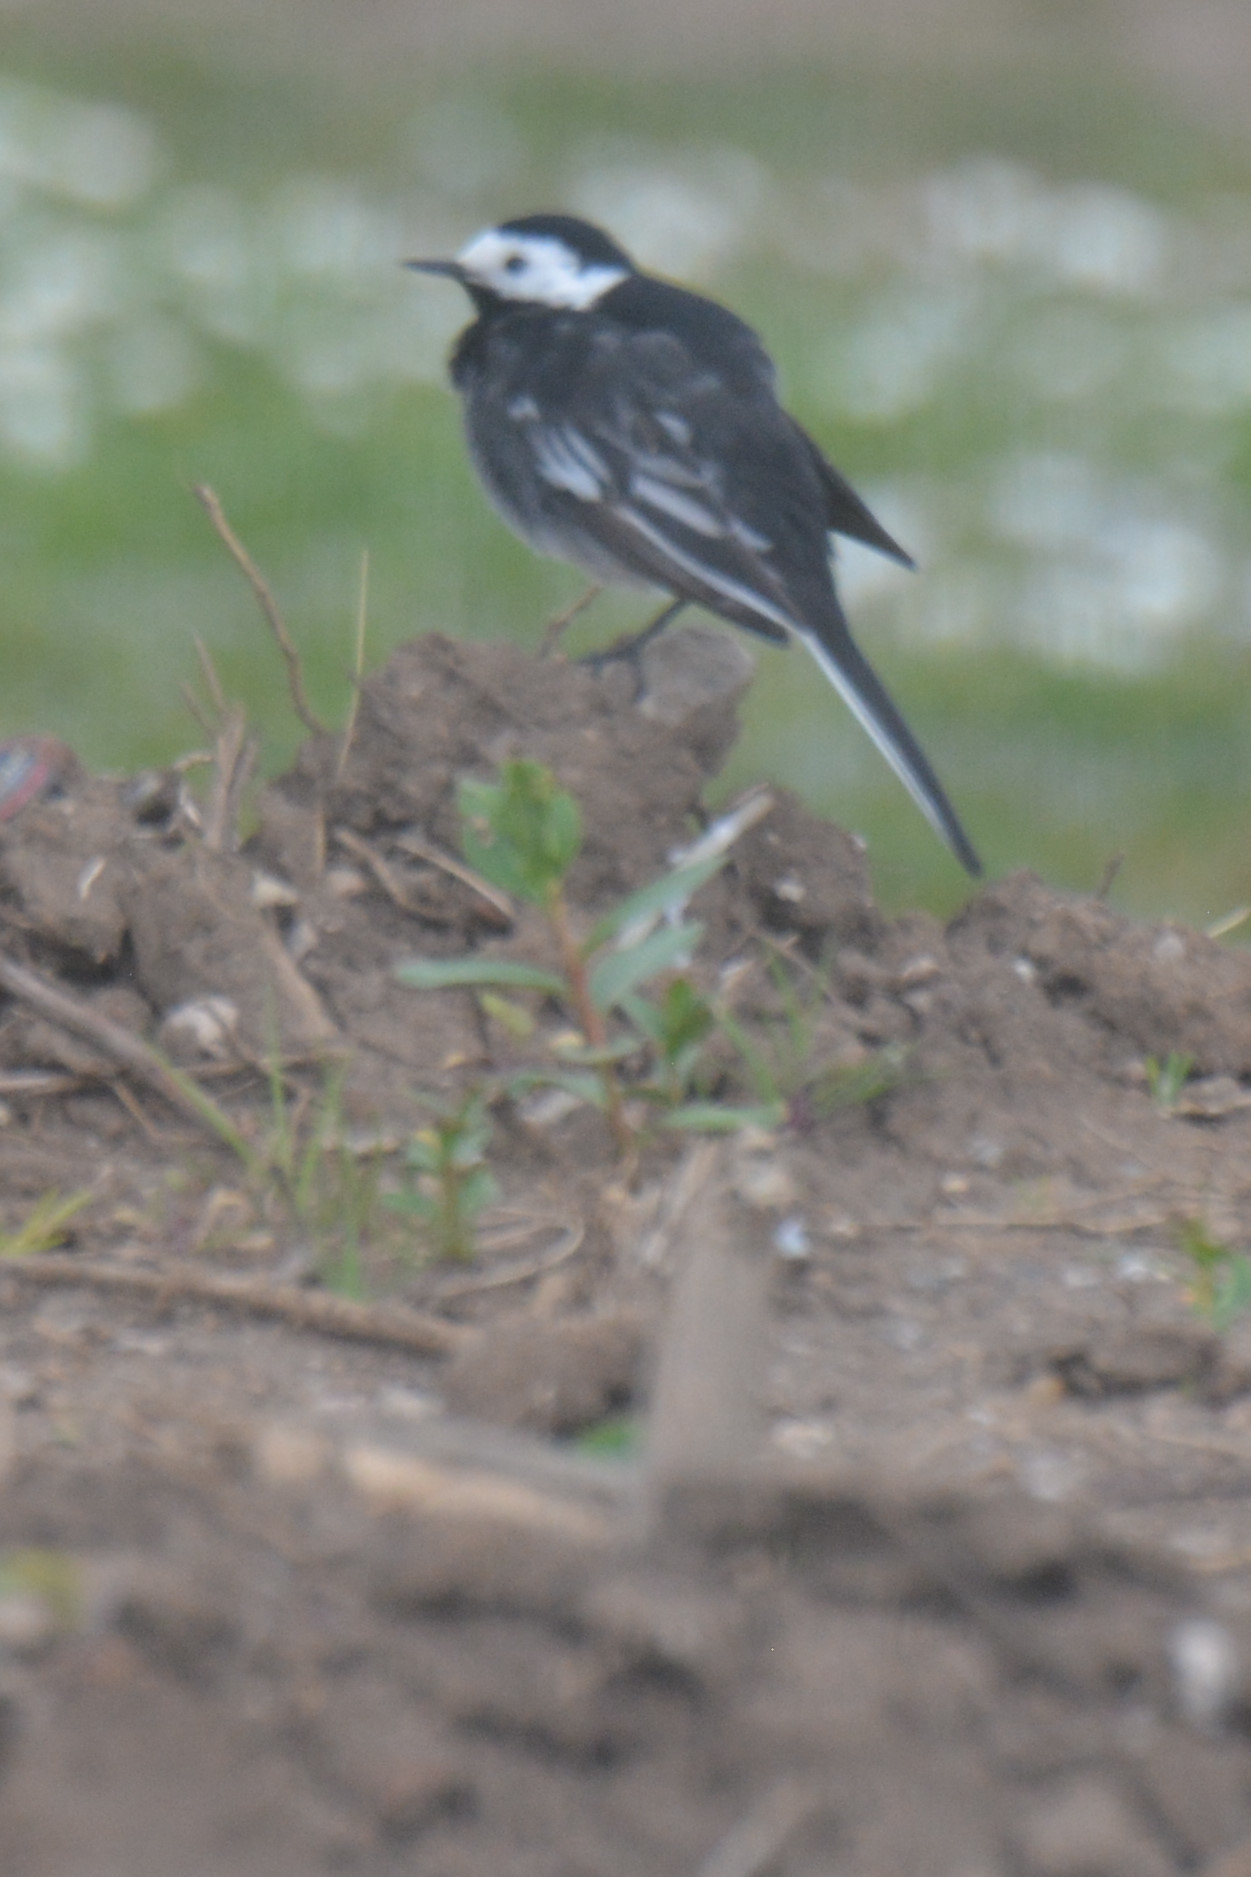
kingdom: Animalia
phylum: Chordata
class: Aves
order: Passeriformes
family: Motacillidae
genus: Motacilla
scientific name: Motacilla alba
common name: White wagtail
